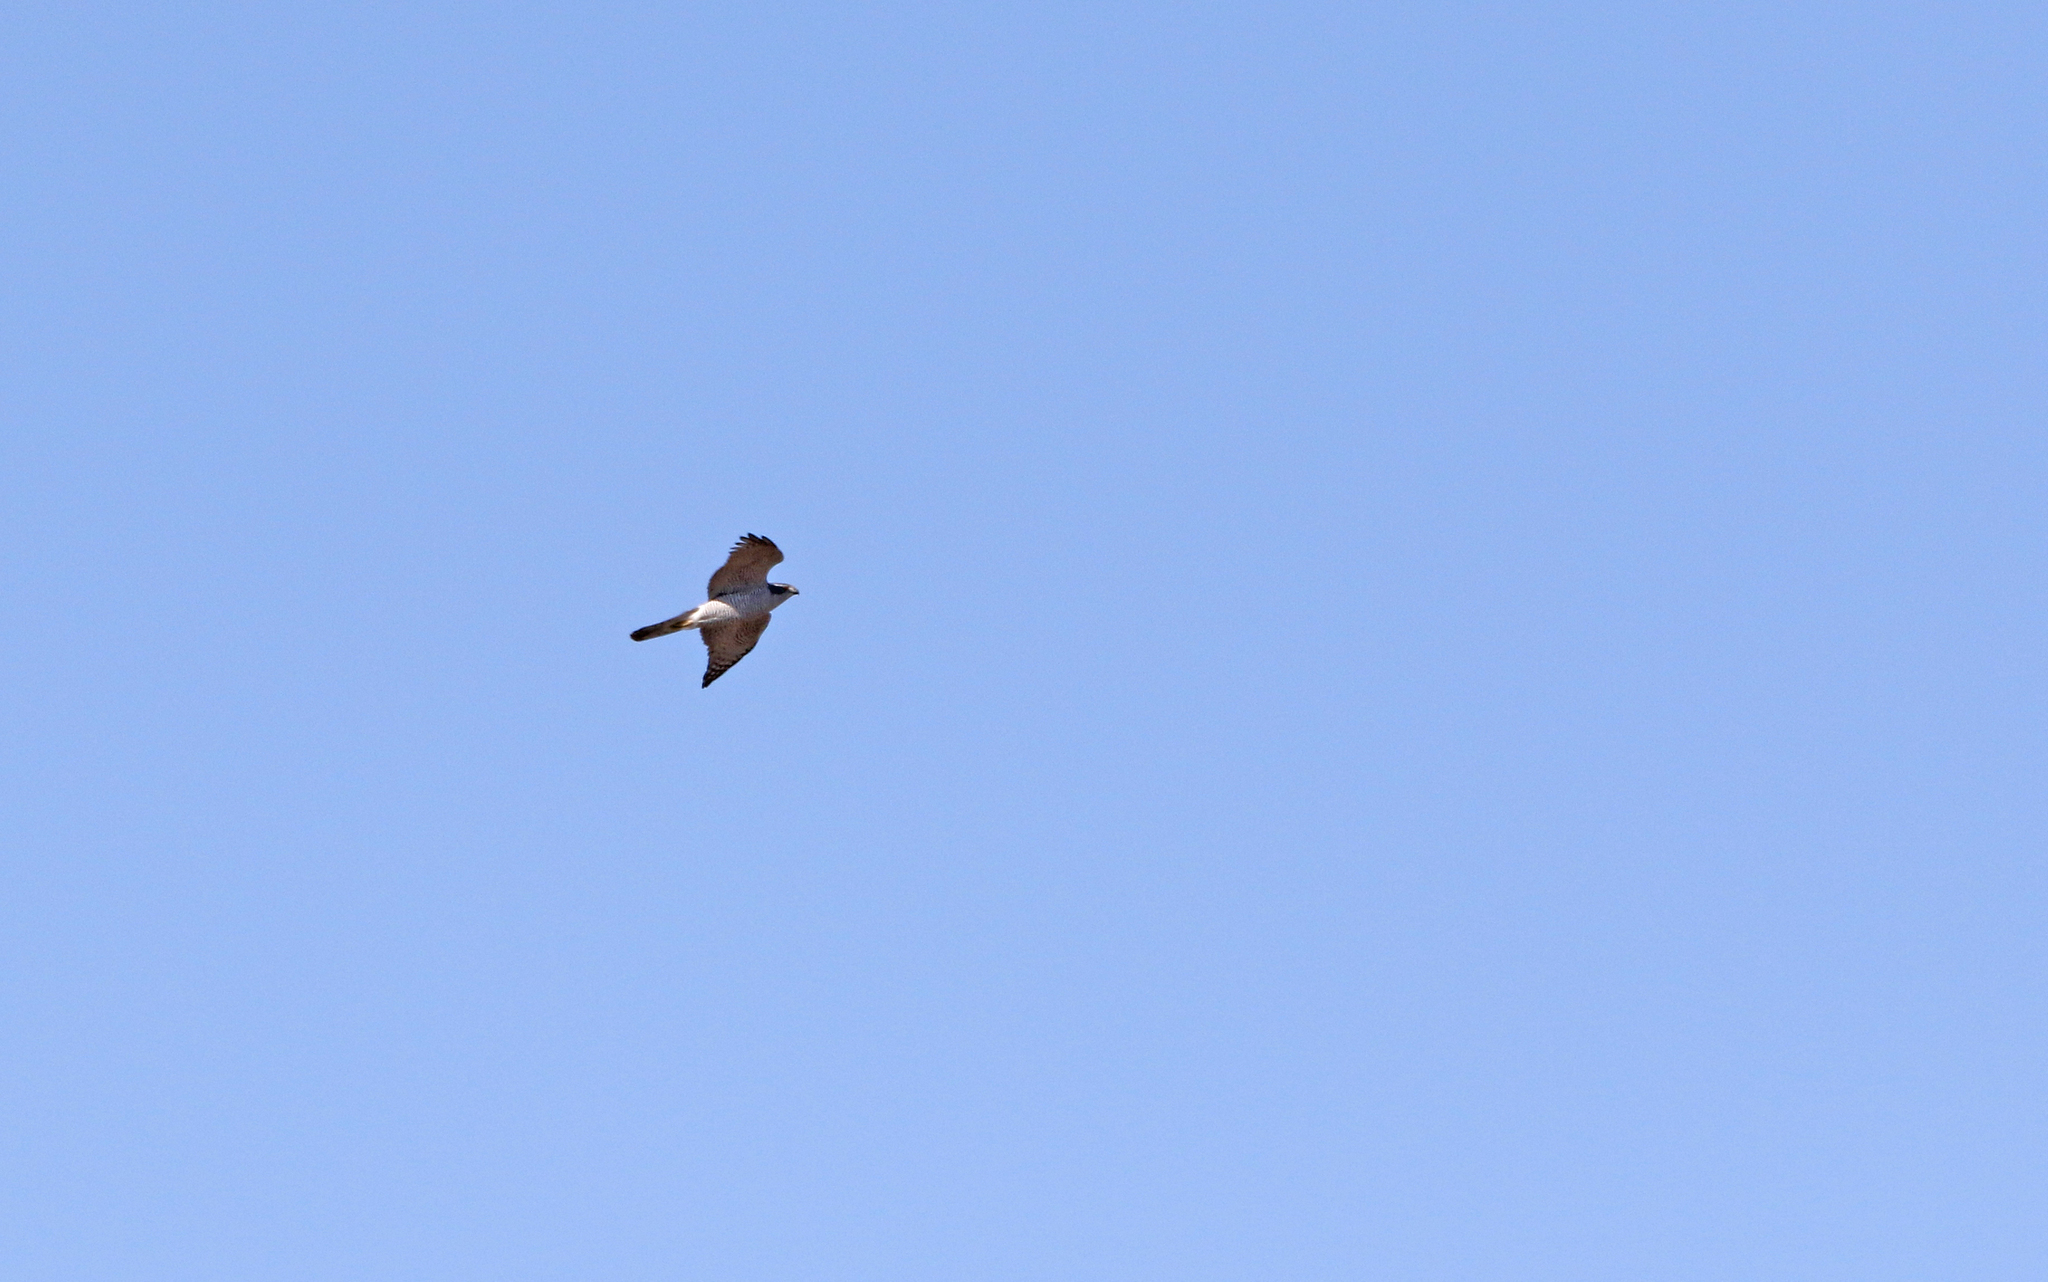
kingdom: Animalia
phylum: Chordata
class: Aves
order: Accipitriformes
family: Accipitridae
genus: Accipiter
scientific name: Accipiter gentilis
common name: Northern goshawk
